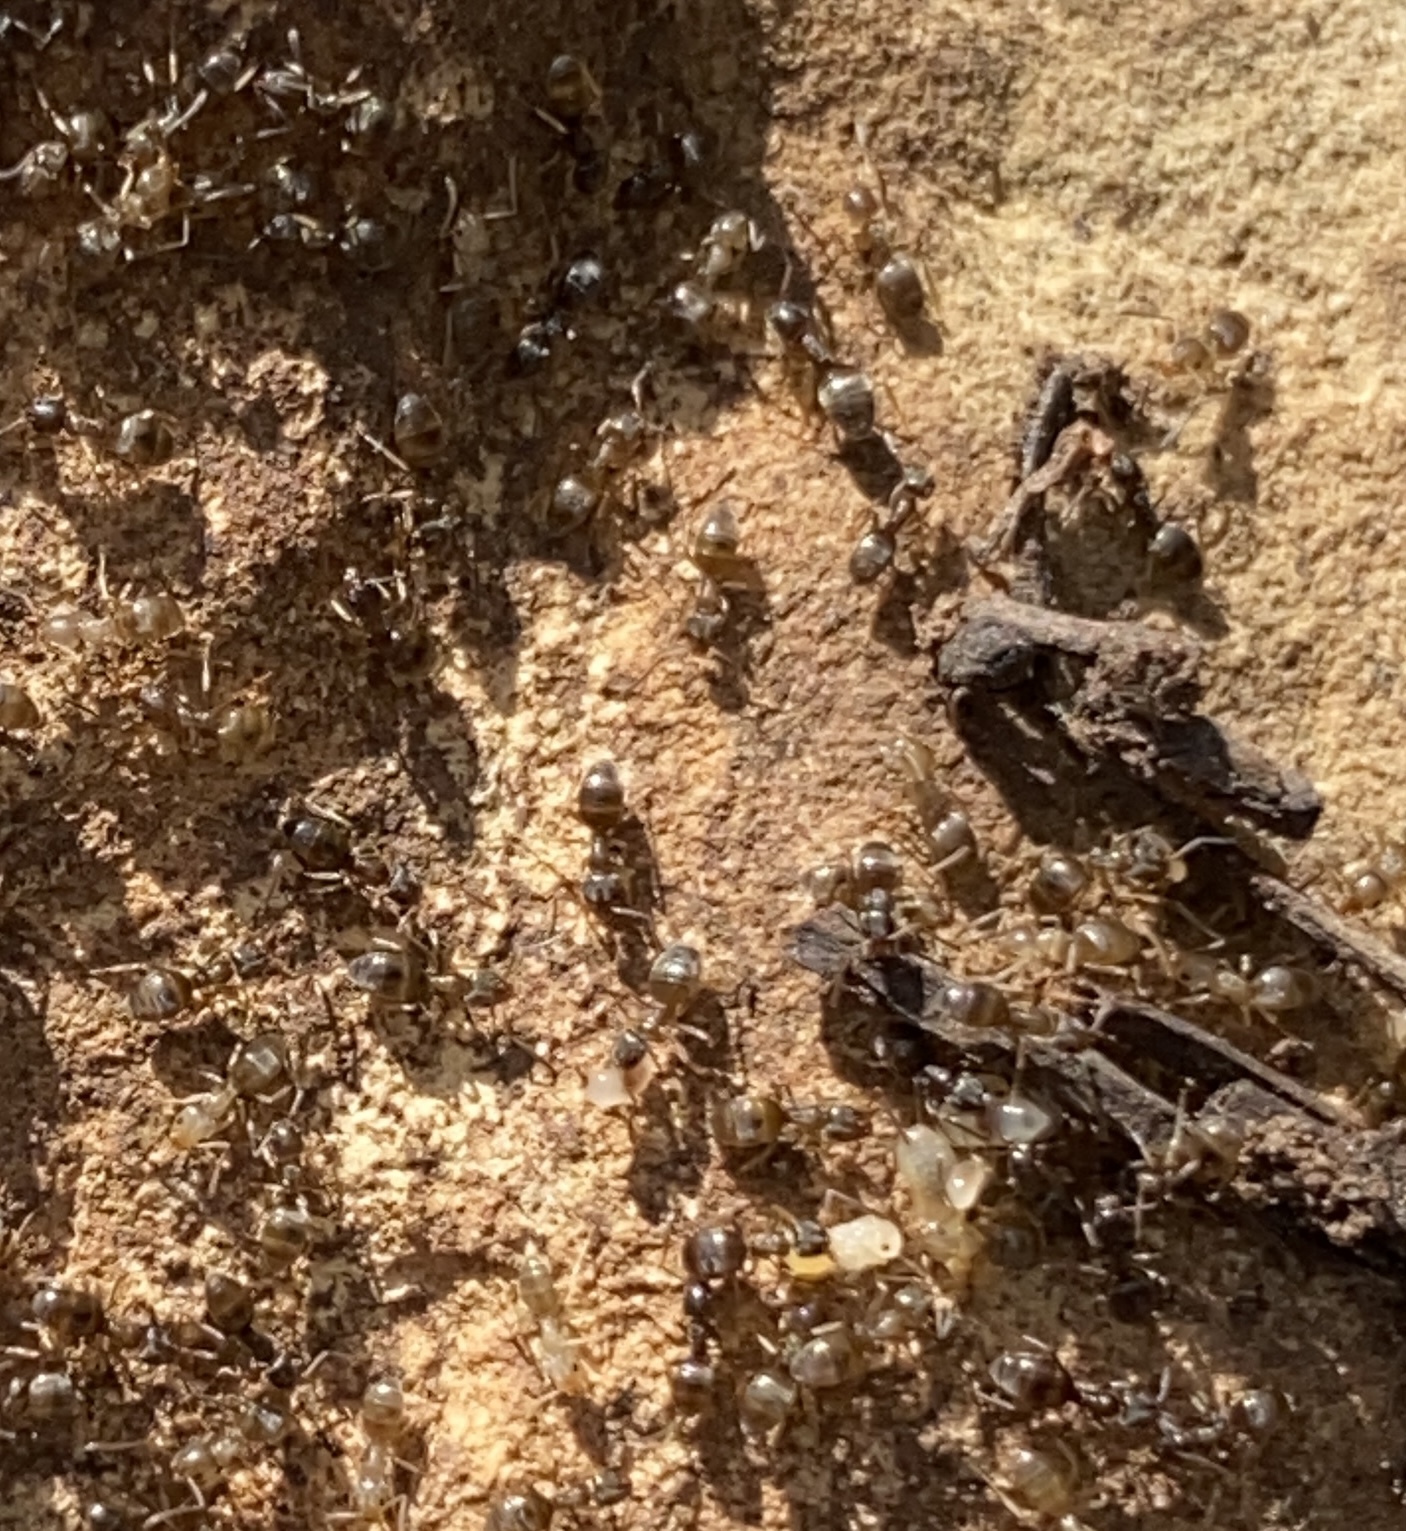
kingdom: Animalia
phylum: Arthropoda
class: Insecta
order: Hymenoptera
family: Formicidae
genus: Tapinoma
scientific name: Tapinoma sessile
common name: Odorous house ant
